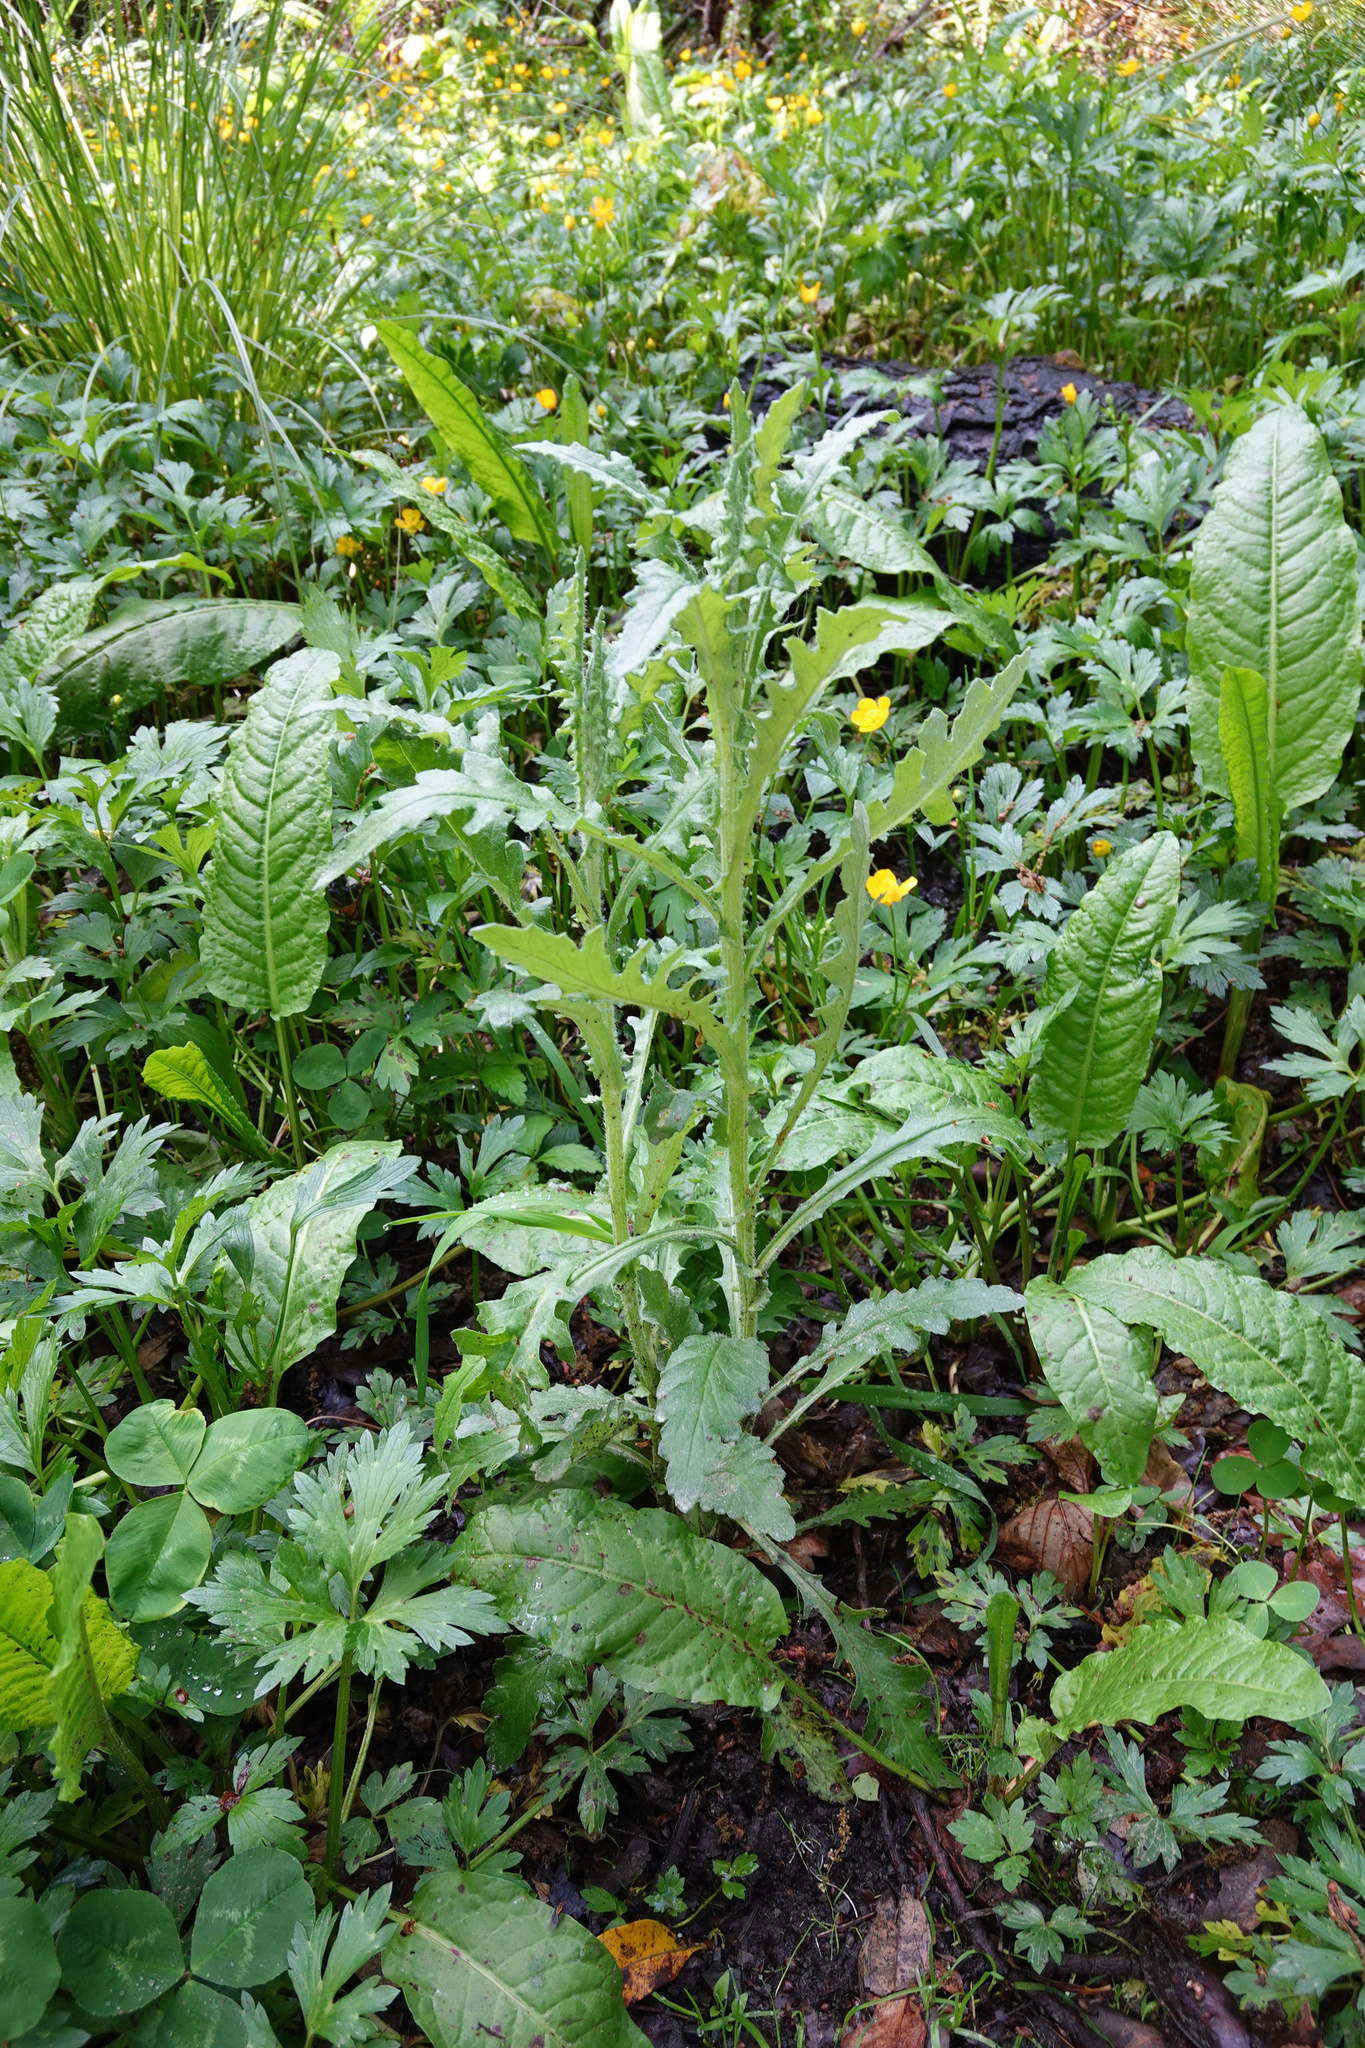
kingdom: Plantae
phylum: Tracheophyta
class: Magnoliopsida
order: Asterales
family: Asteraceae
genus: Senecio
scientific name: Senecio glomeratus
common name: Cutleaf burnweed
